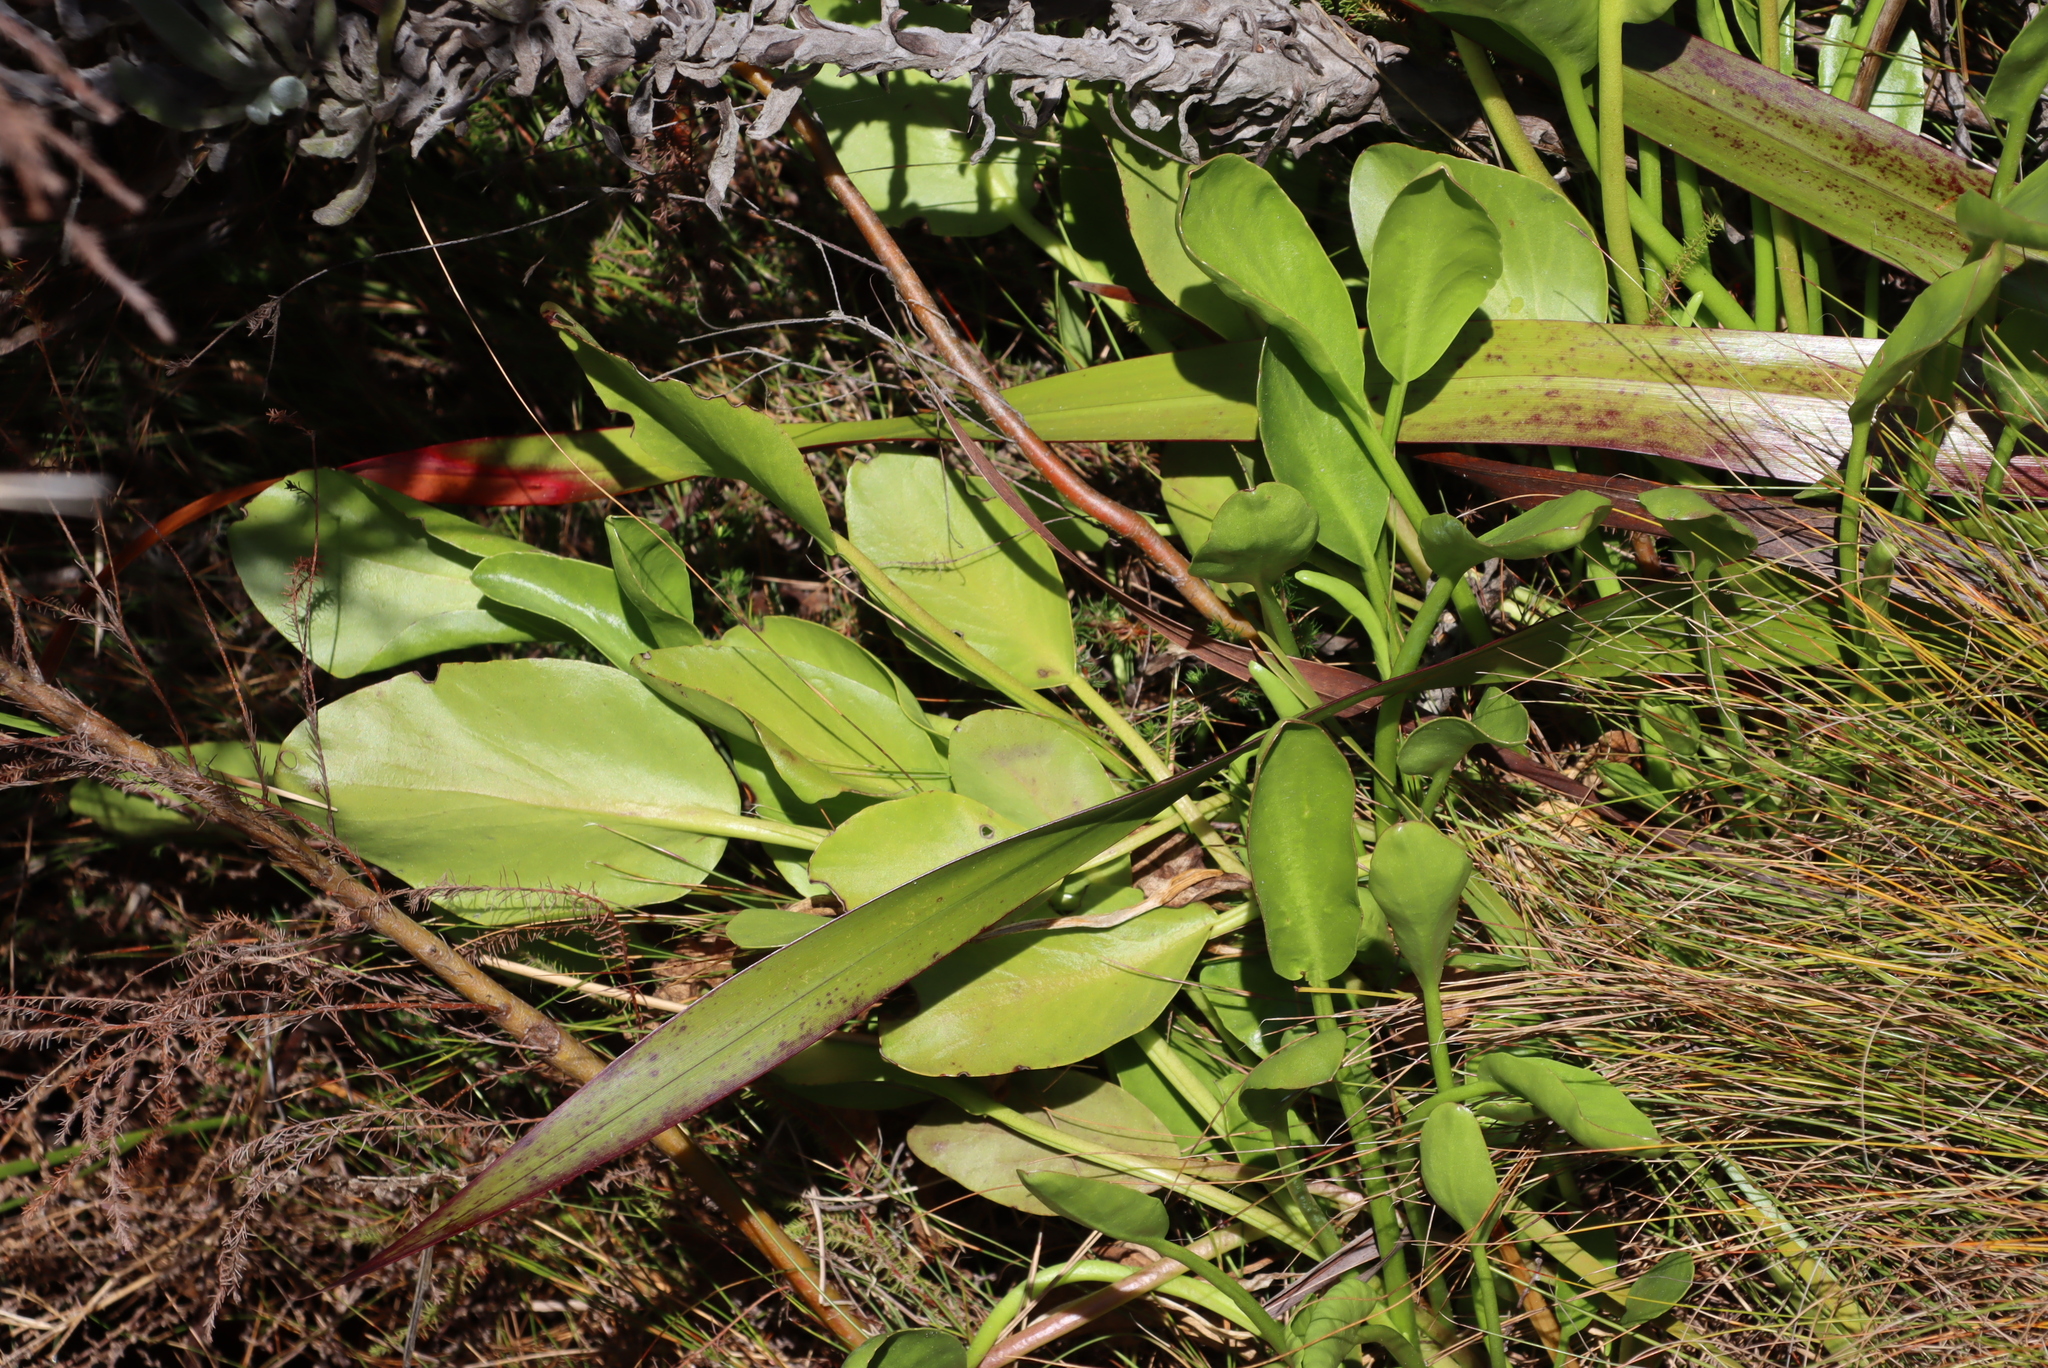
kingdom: Plantae
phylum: Tracheophyta
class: Magnoliopsida
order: Asterales
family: Menyanthaceae
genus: Villarsia
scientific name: Villarsia goldblattiana
